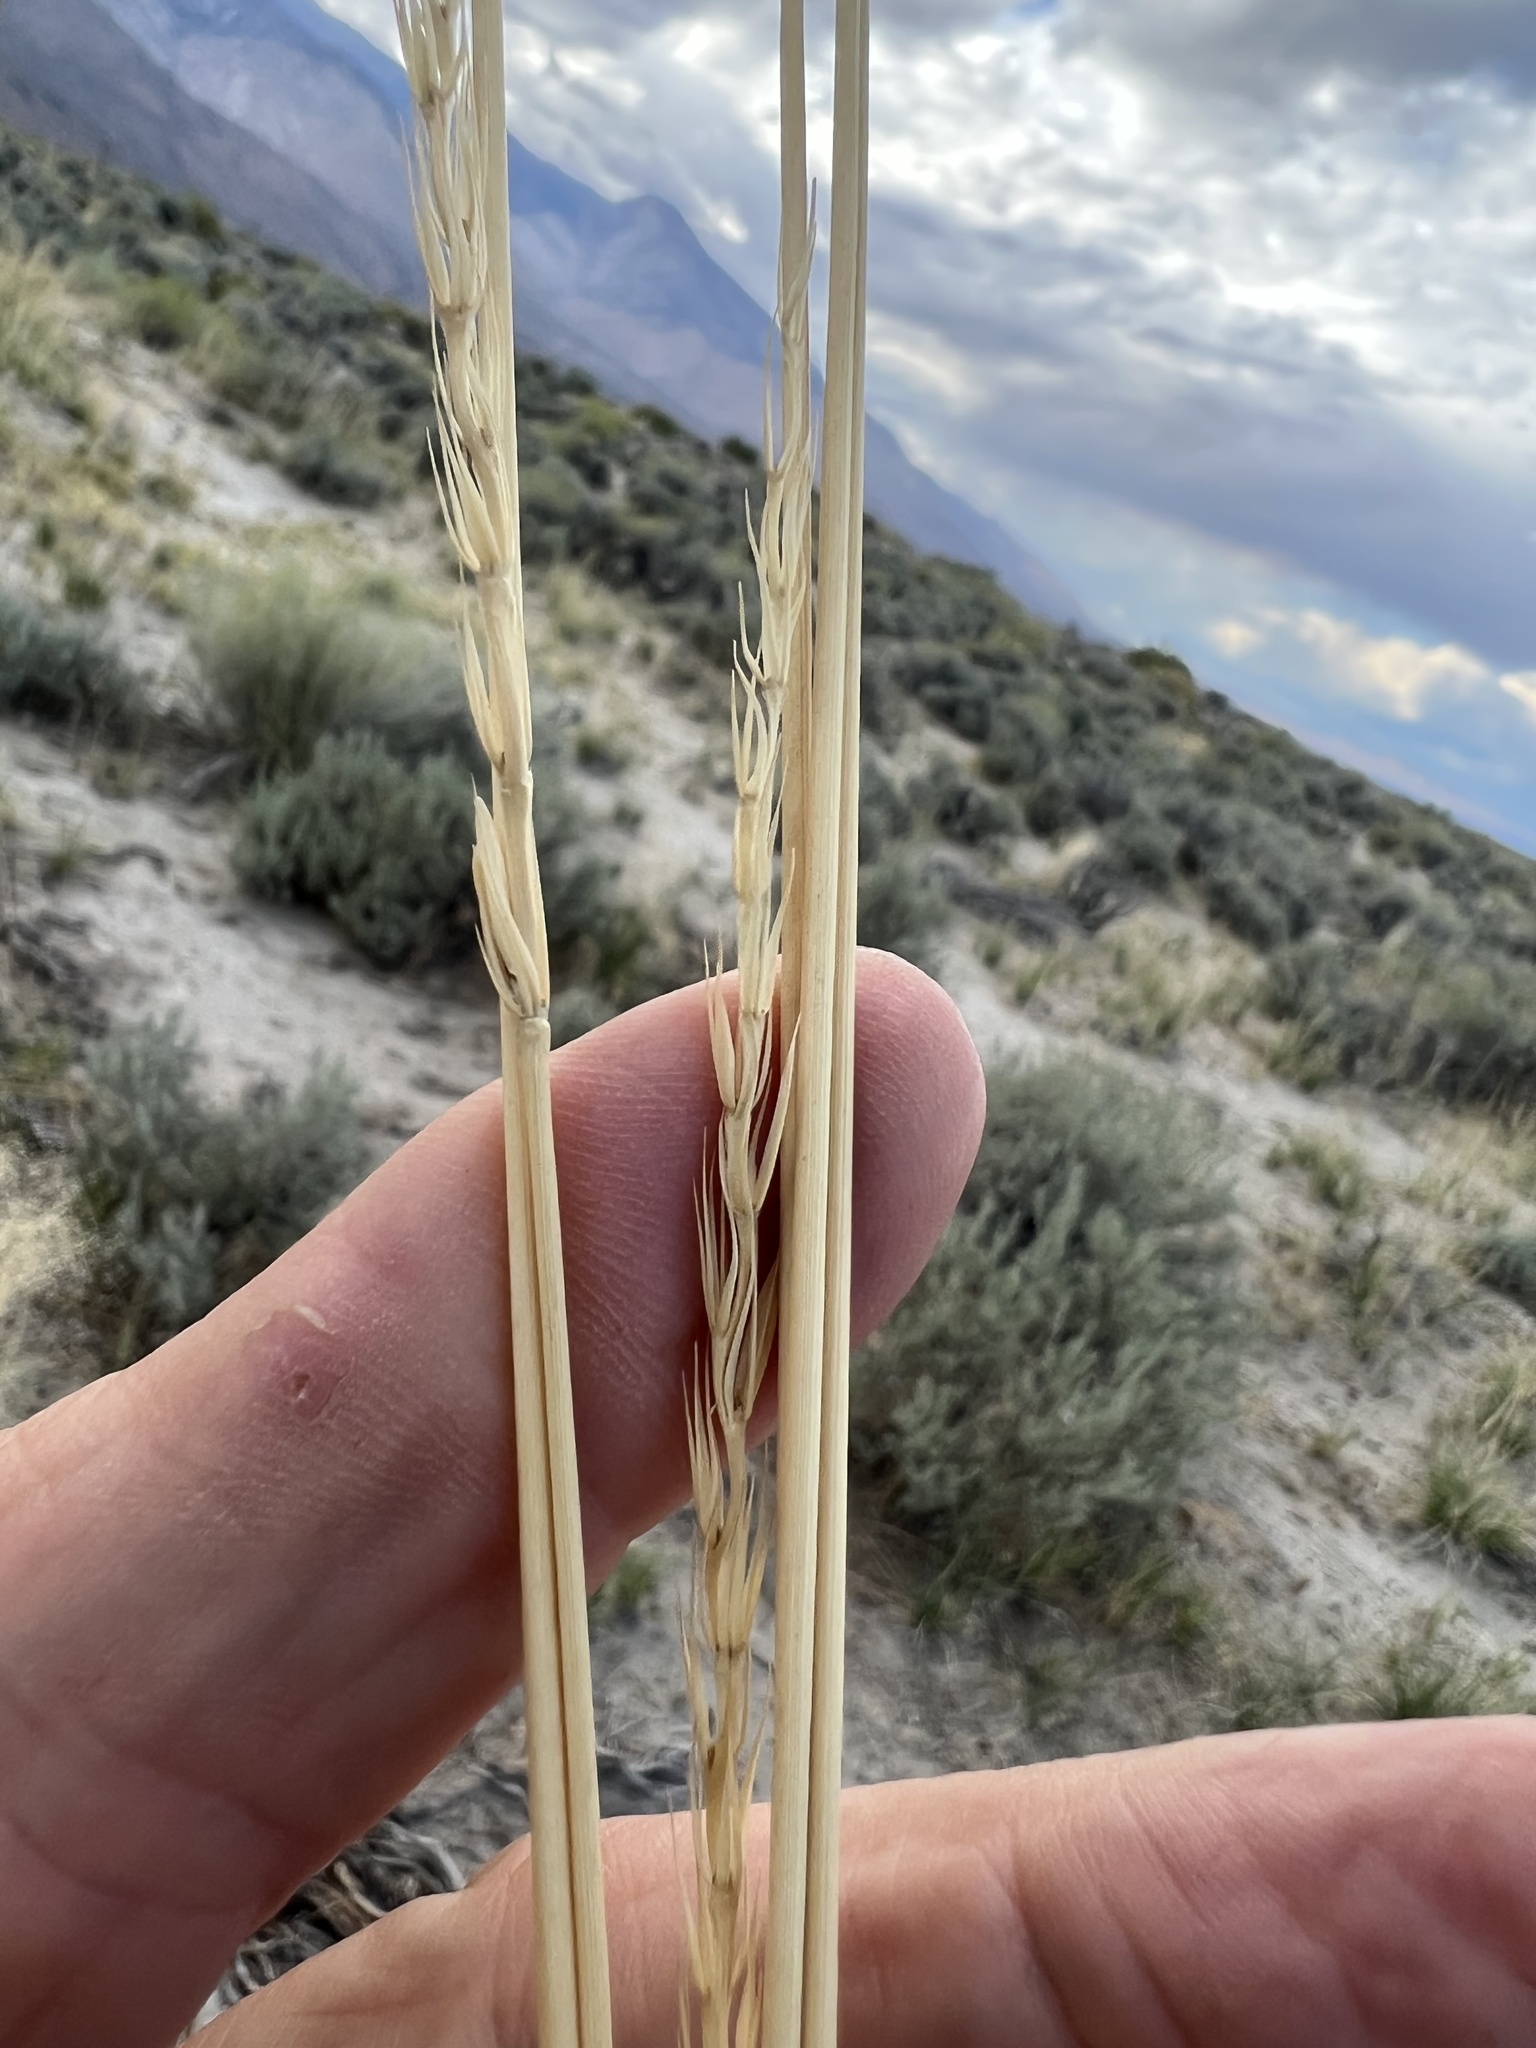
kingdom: Plantae
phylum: Tracheophyta
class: Liliopsida
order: Poales
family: Poaceae
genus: Leymus
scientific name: Leymus cinereus
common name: Basin wild rye
